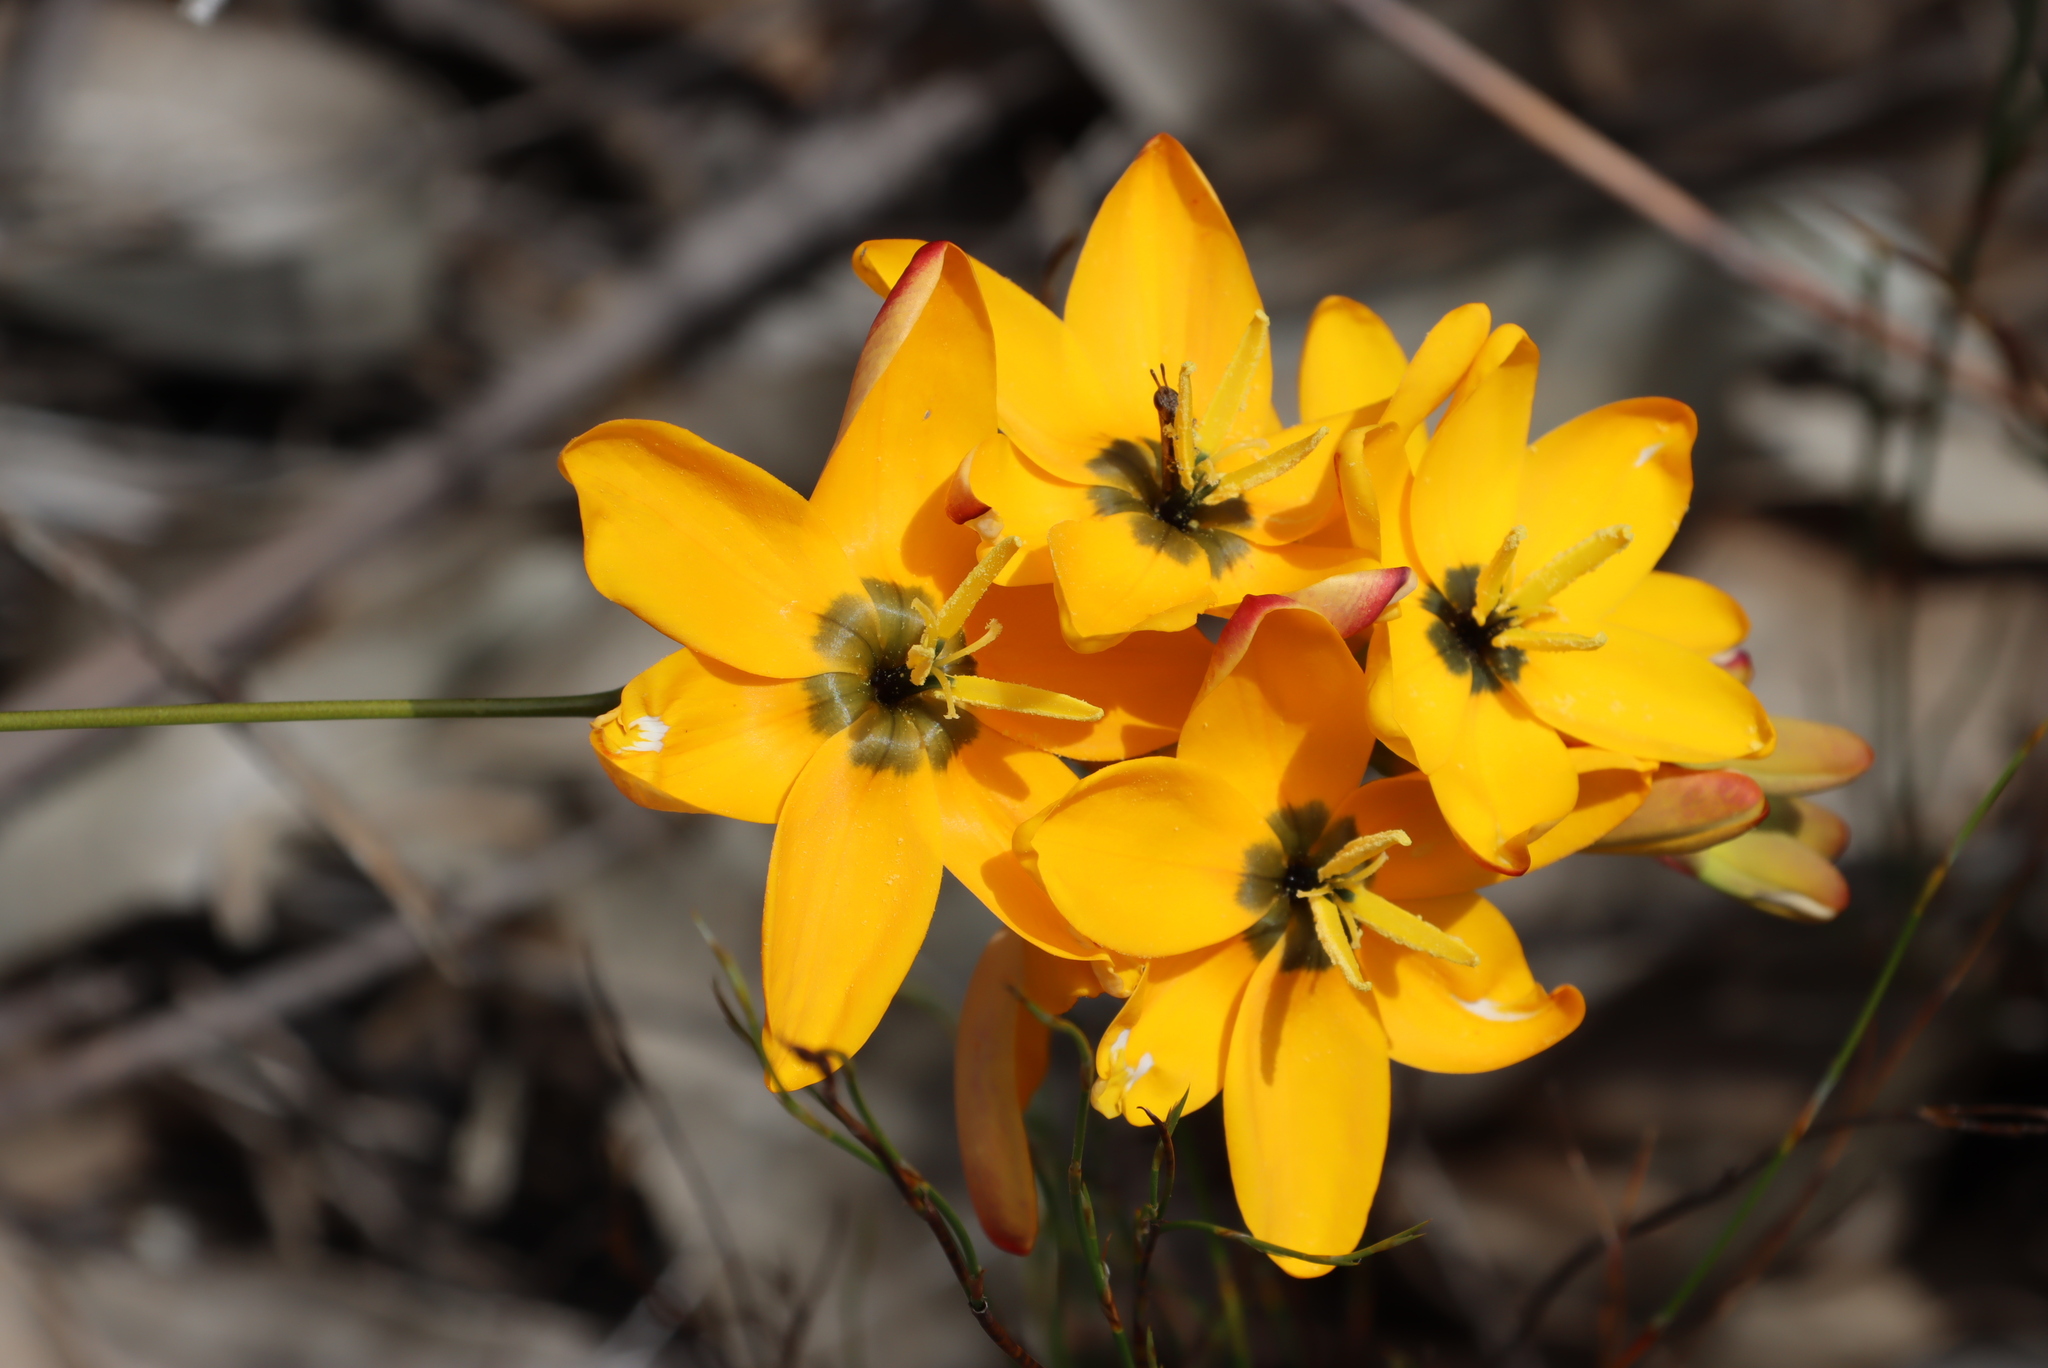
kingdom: Plantae
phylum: Tracheophyta
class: Liliopsida
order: Asparagales
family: Iridaceae
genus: Ixia
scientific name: Ixia dubia
